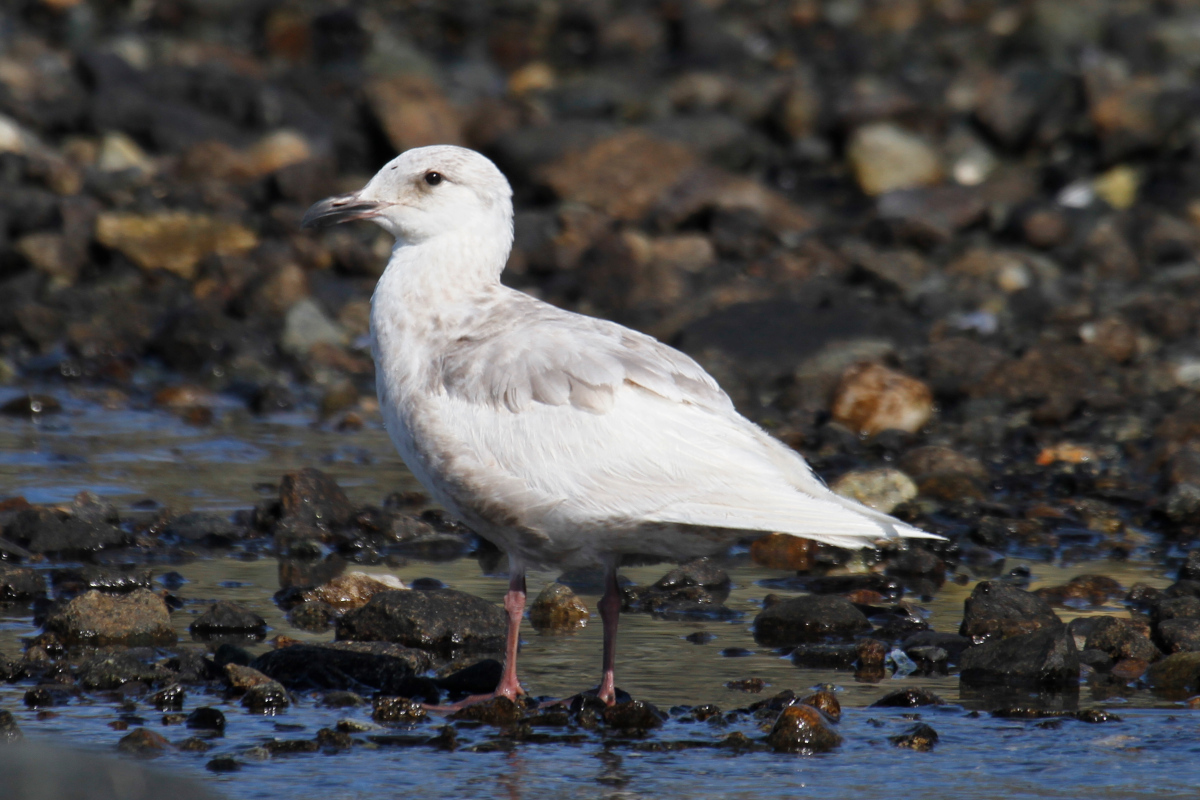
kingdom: Animalia
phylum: Chordata
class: Aves
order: Charadriiformes
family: Laridae
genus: Larus
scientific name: Larus glaucescens
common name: Glaucous-winged gull
